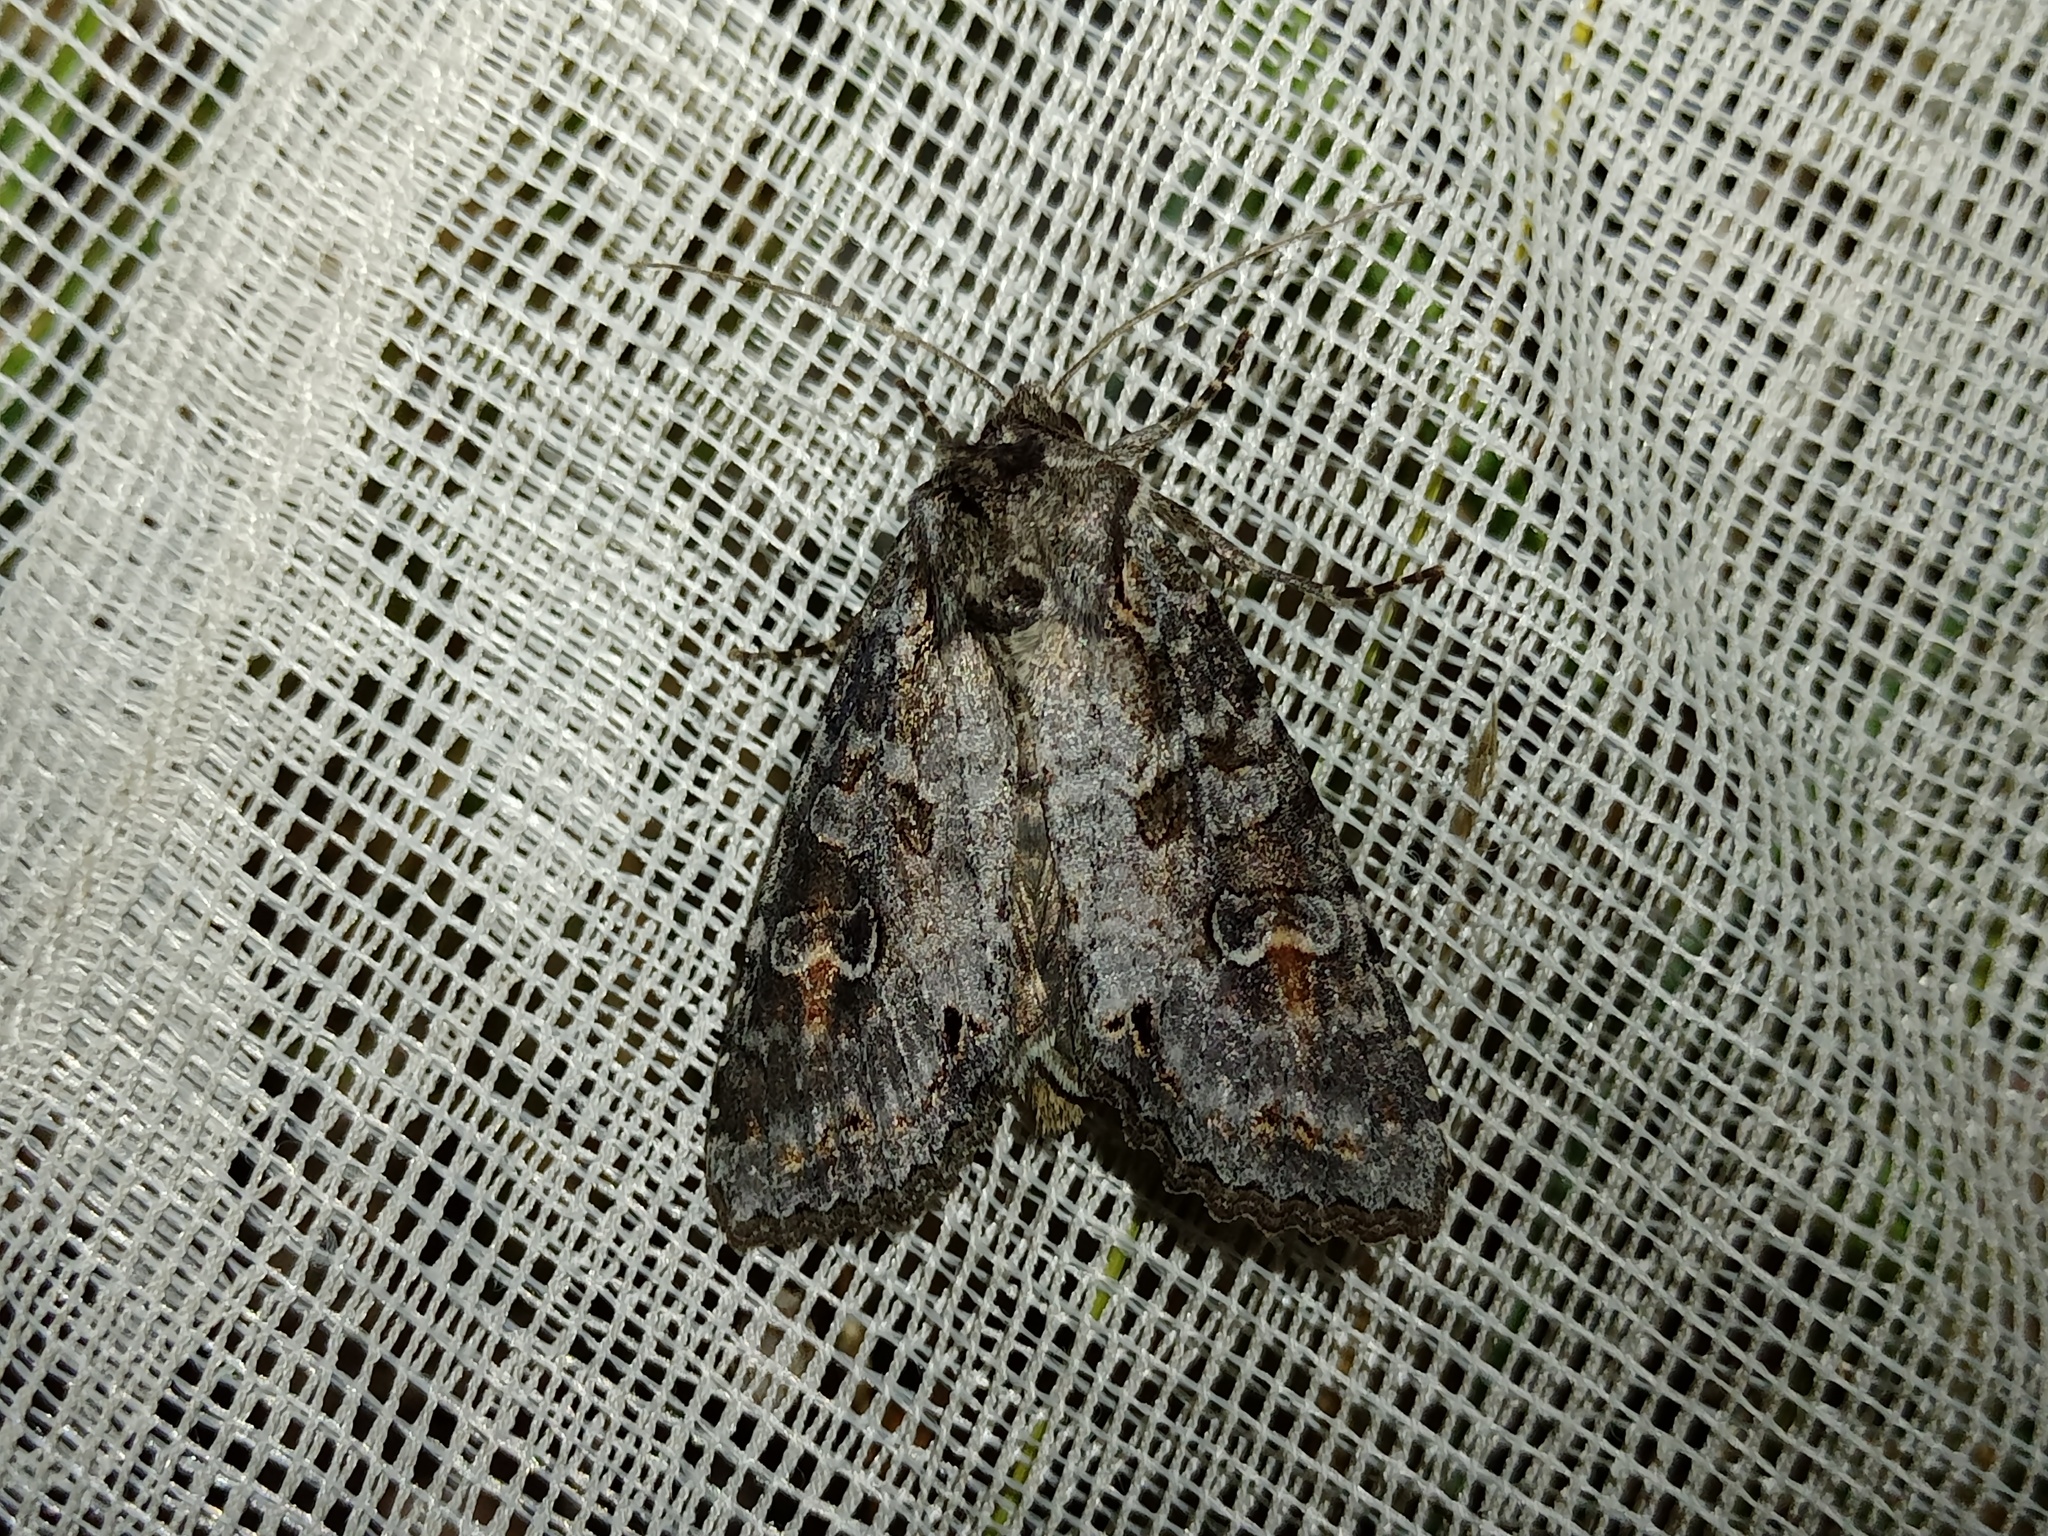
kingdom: Animalia
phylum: Arthropoda
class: Insecta
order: Lepidoptera
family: Noctuidae
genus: Polia
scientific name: Polia bombycina
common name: Pale shining brown
